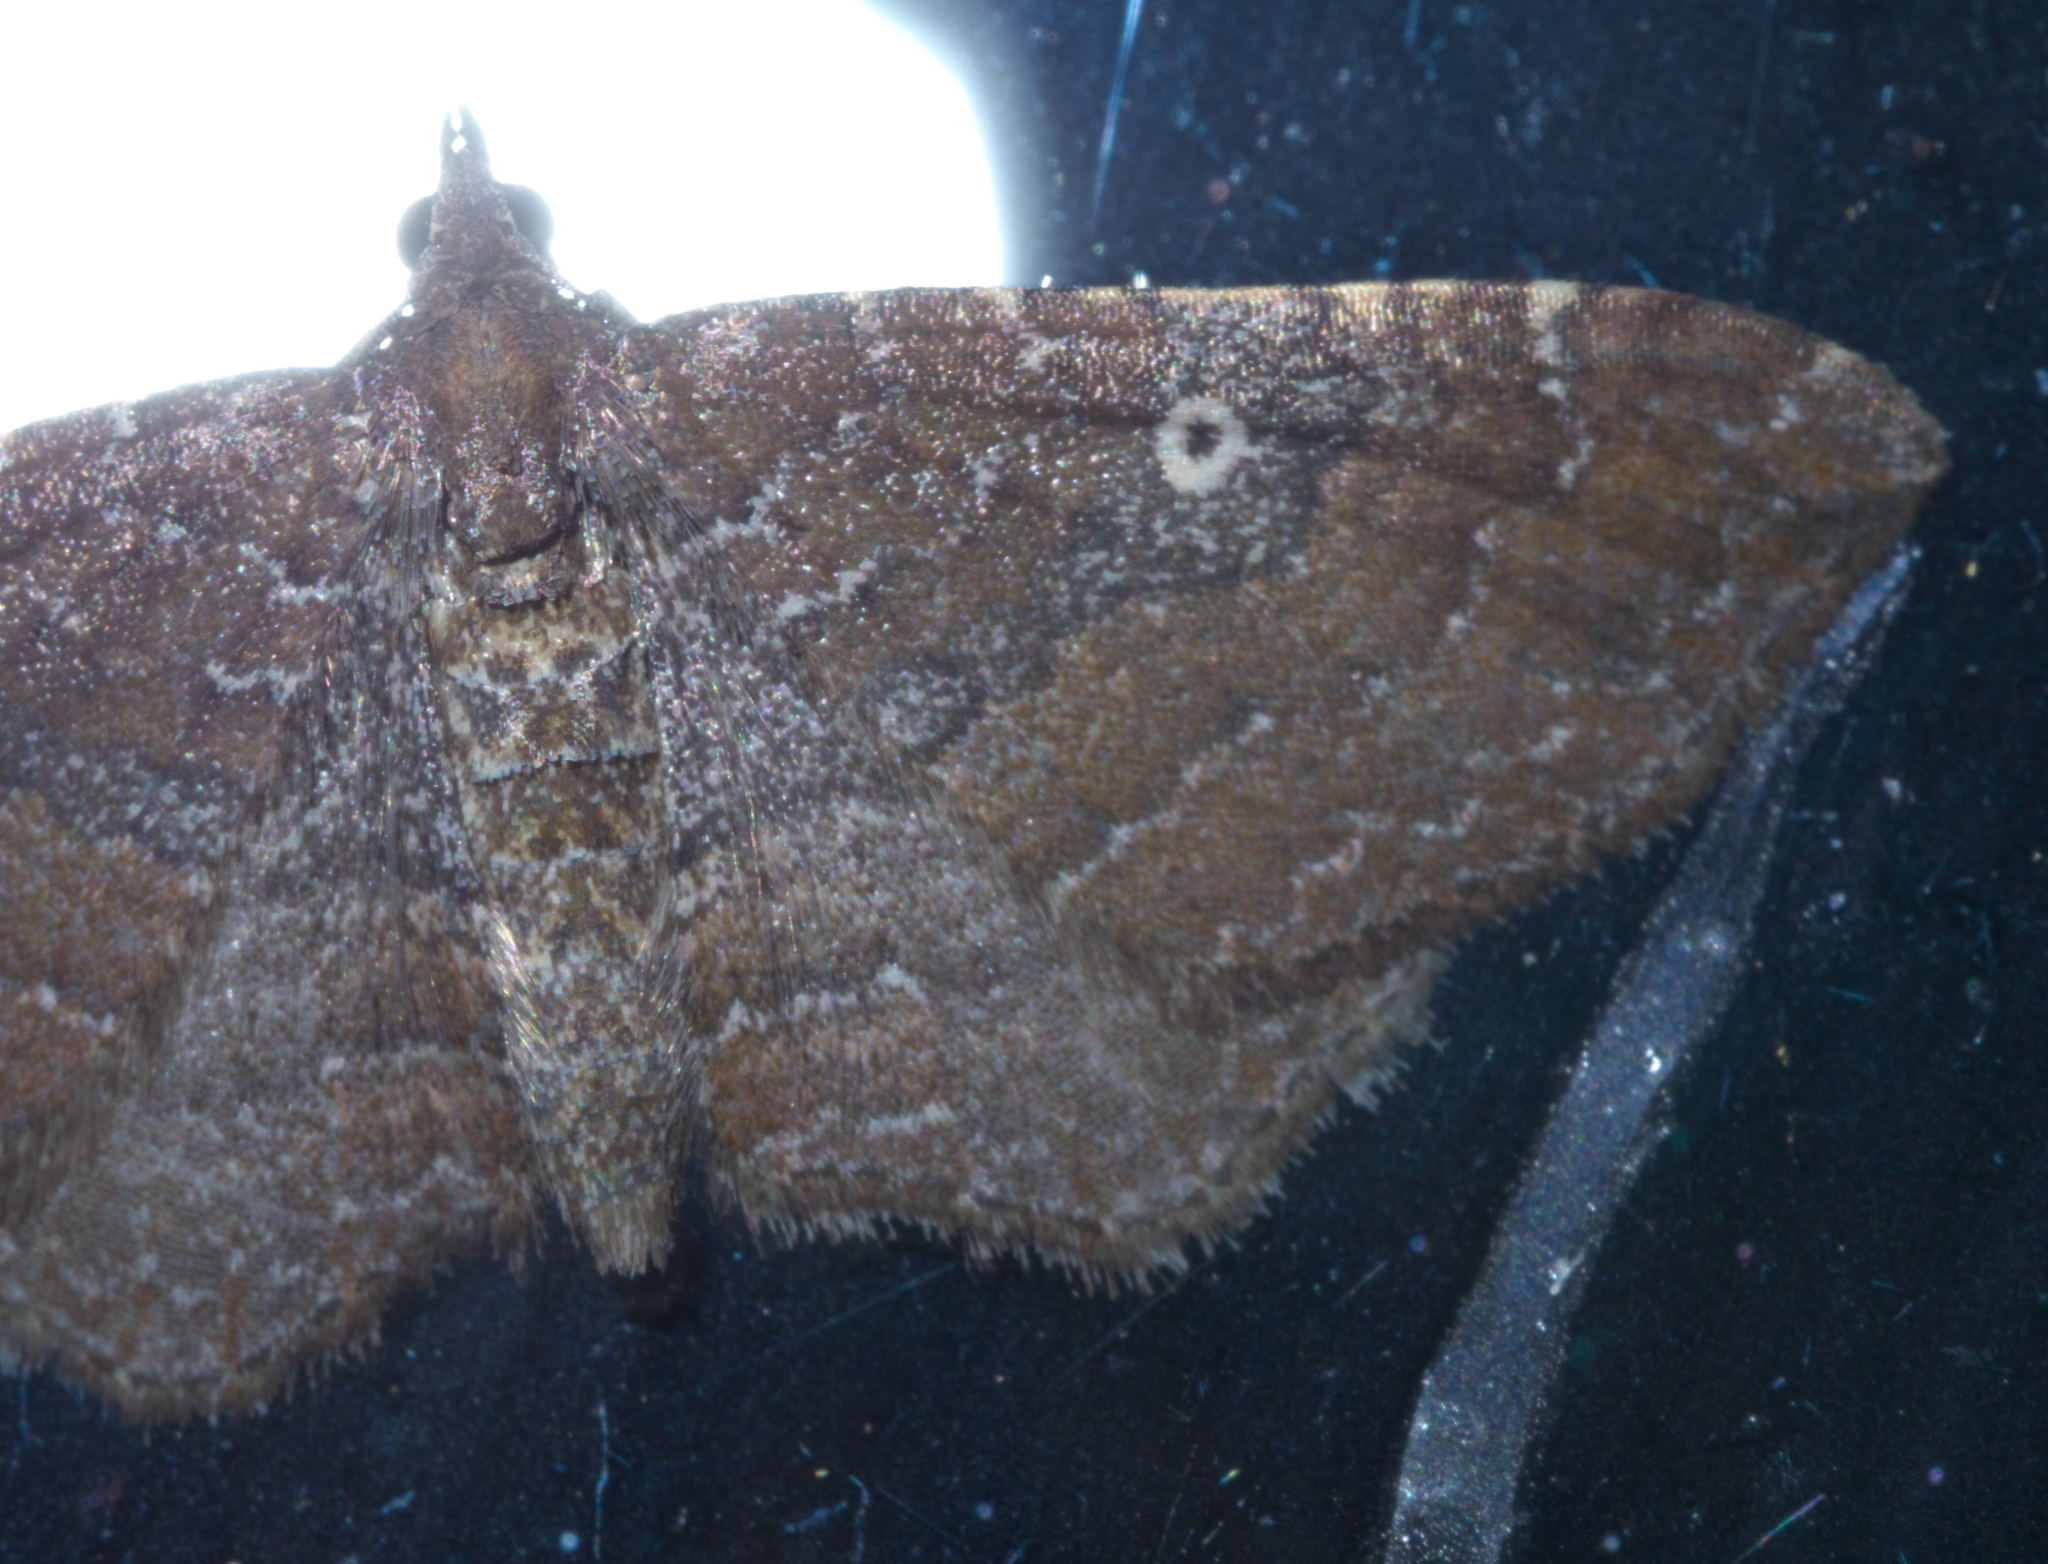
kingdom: Animalia
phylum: Arthropoda
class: Insecta
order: Lepidoptera
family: Geometridae
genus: Orthonama
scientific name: Orthonama obstipata
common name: The gem
